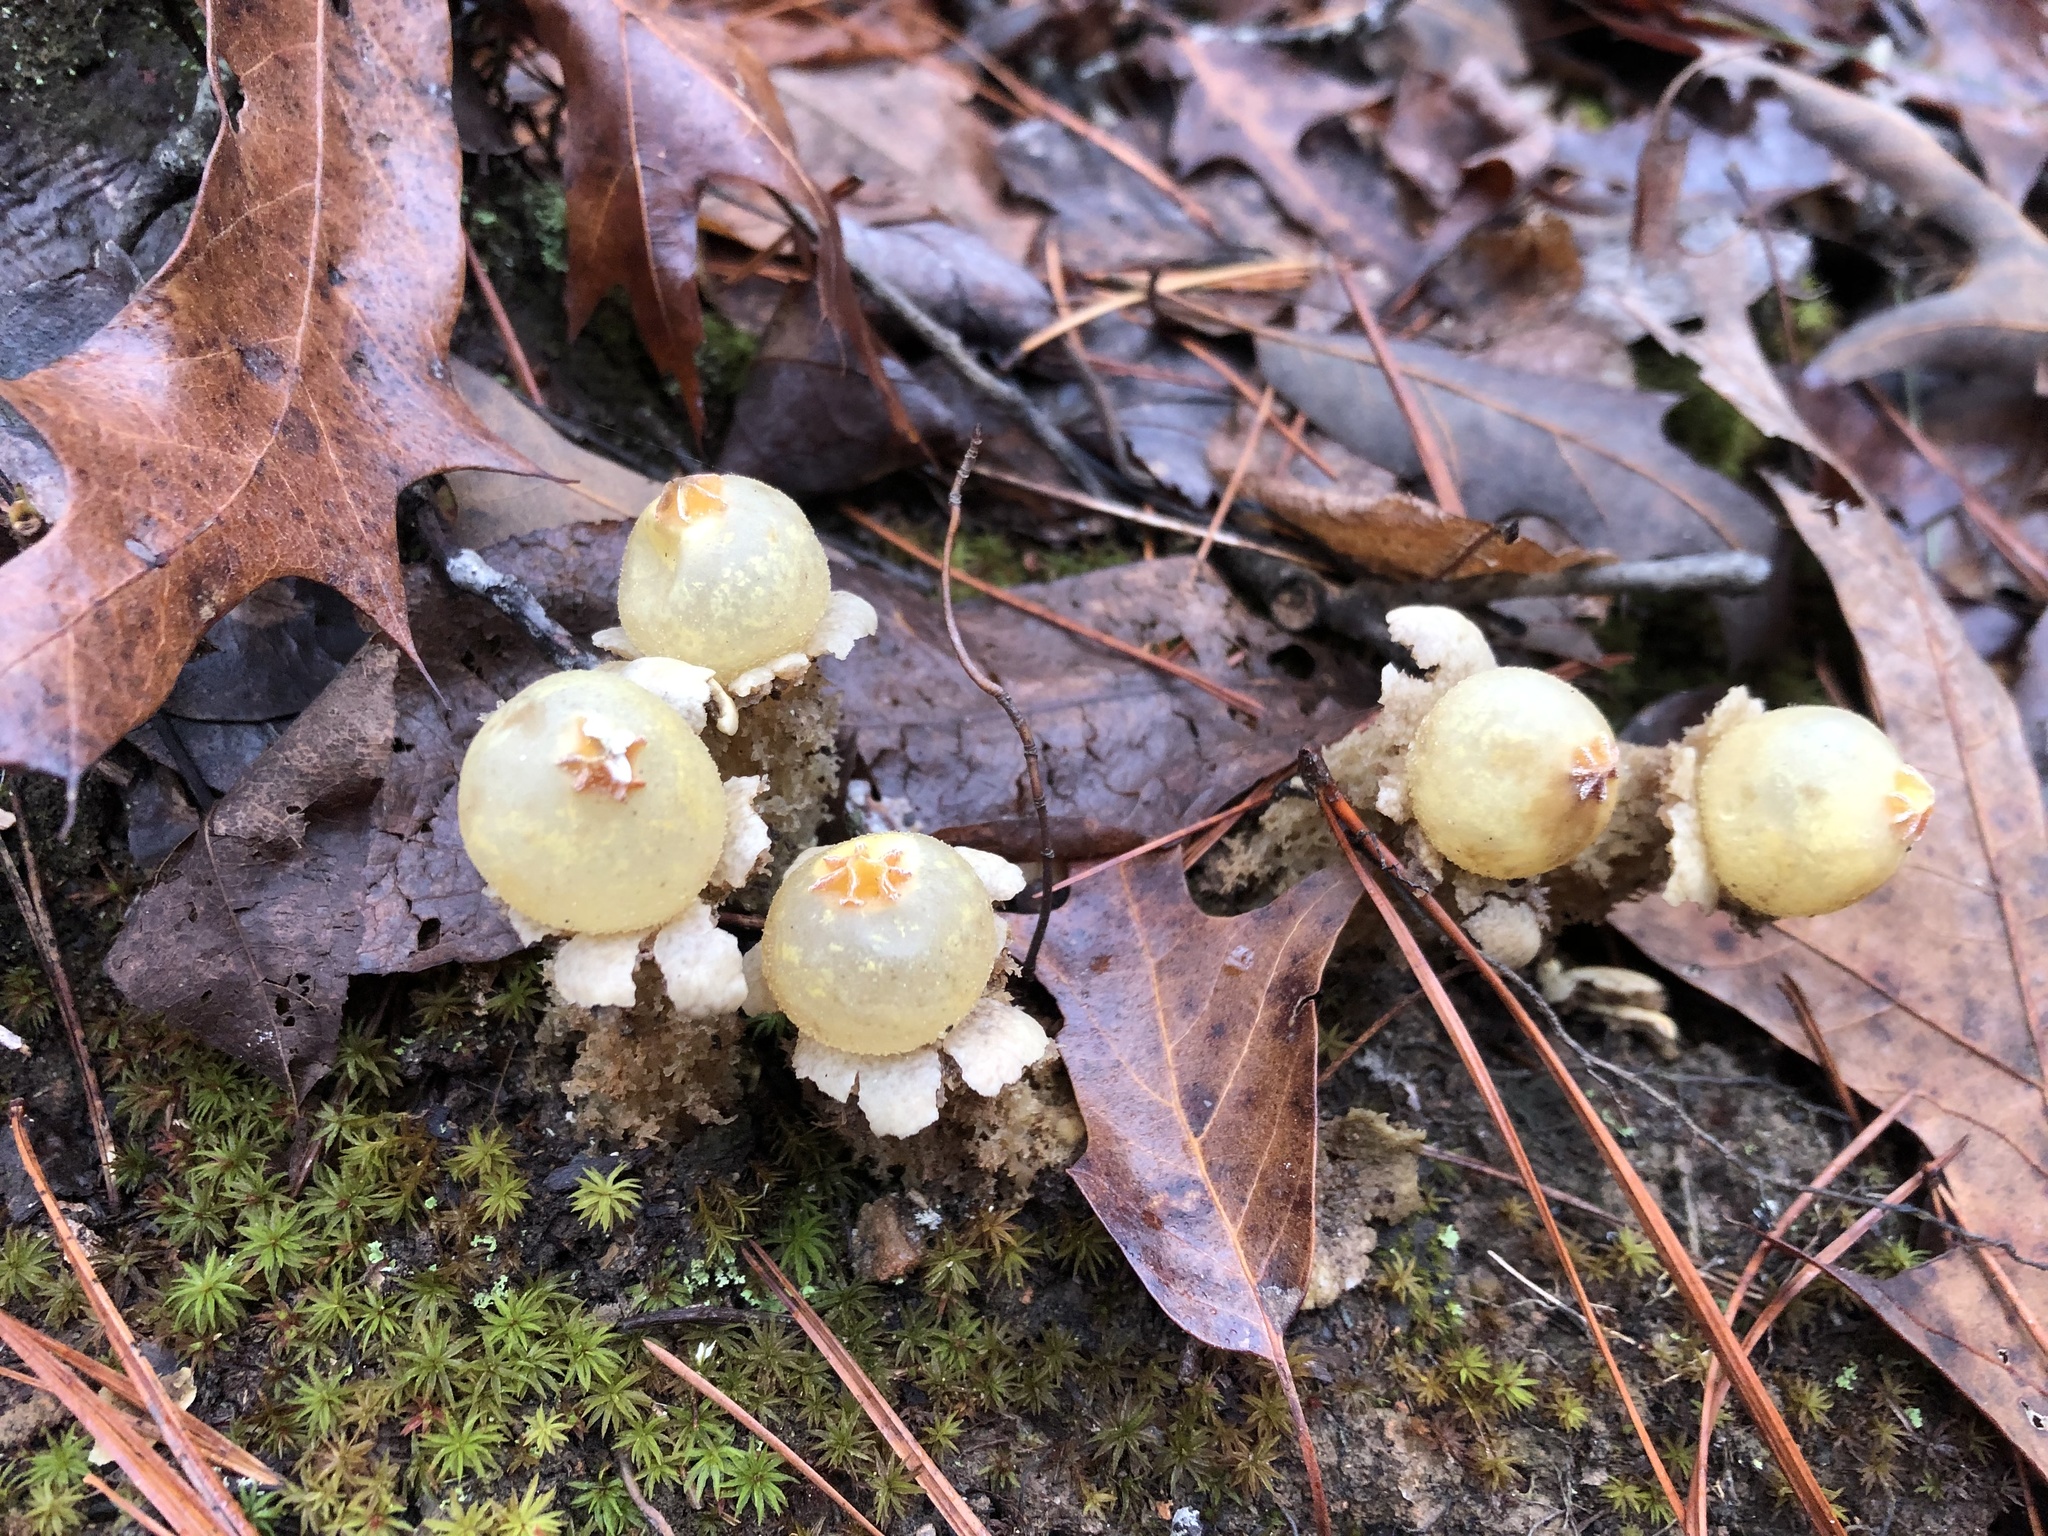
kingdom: Fungi
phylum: Basidiomycota
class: Agaricomycetes
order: Boletales
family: Calostomataceae
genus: Calostoma
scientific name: Calostoma lutescens
